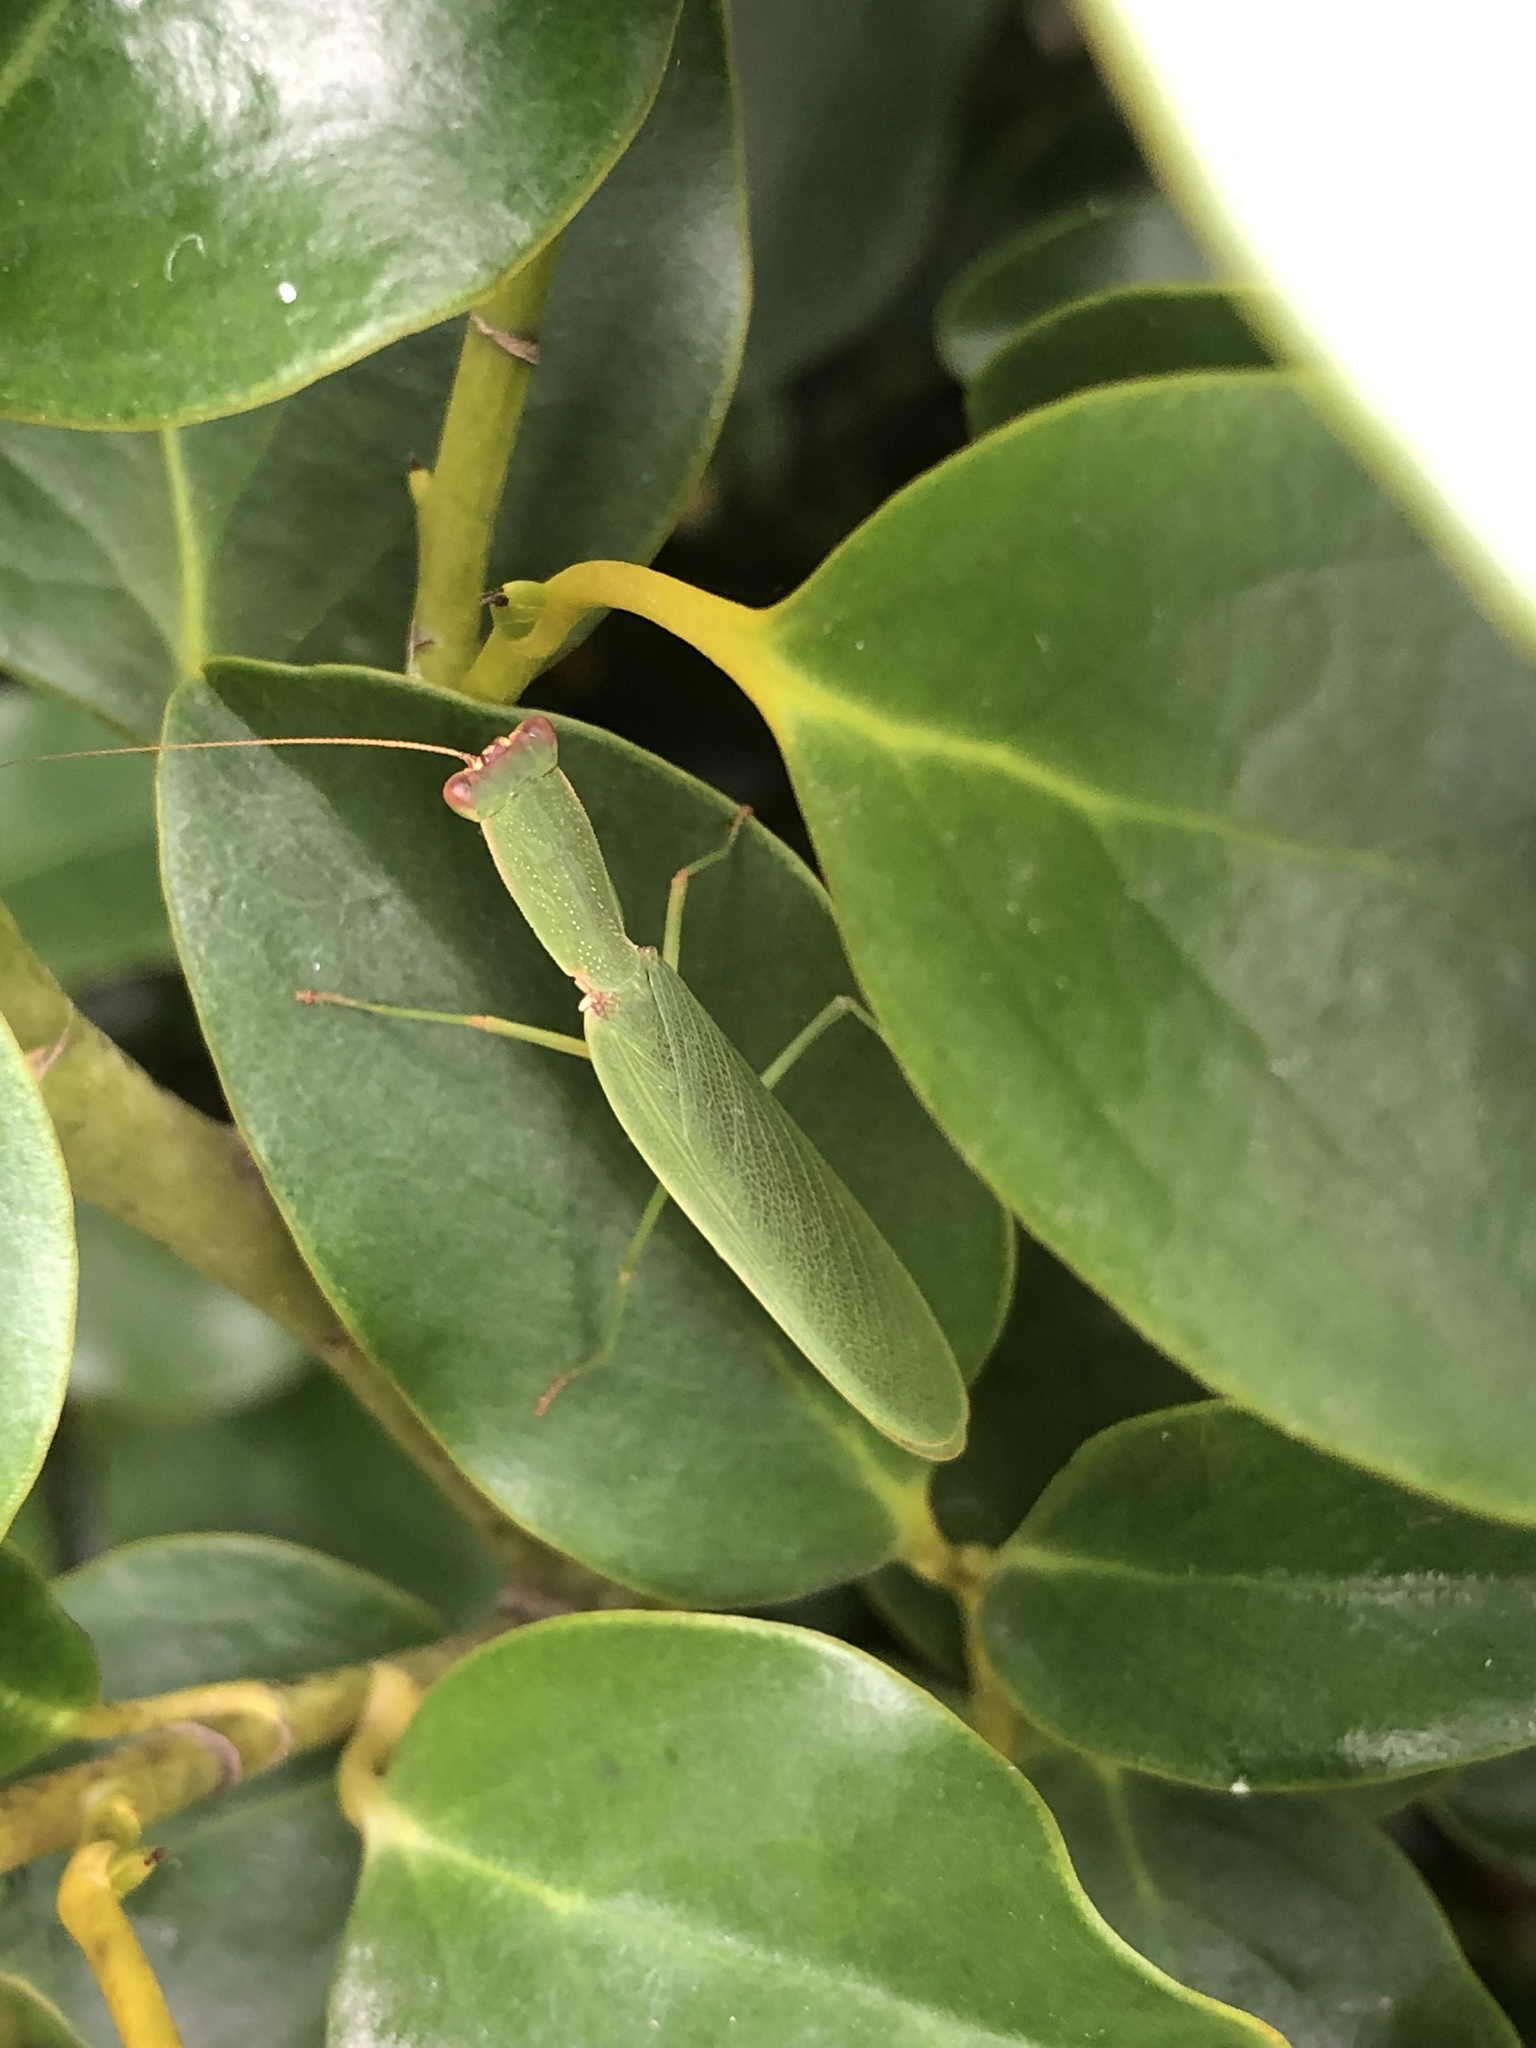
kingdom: Animalia
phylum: Arthropoda
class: Insecta
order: Mantodea
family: Mantidae
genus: Orthodera
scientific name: Orthodera novaezealandiae
